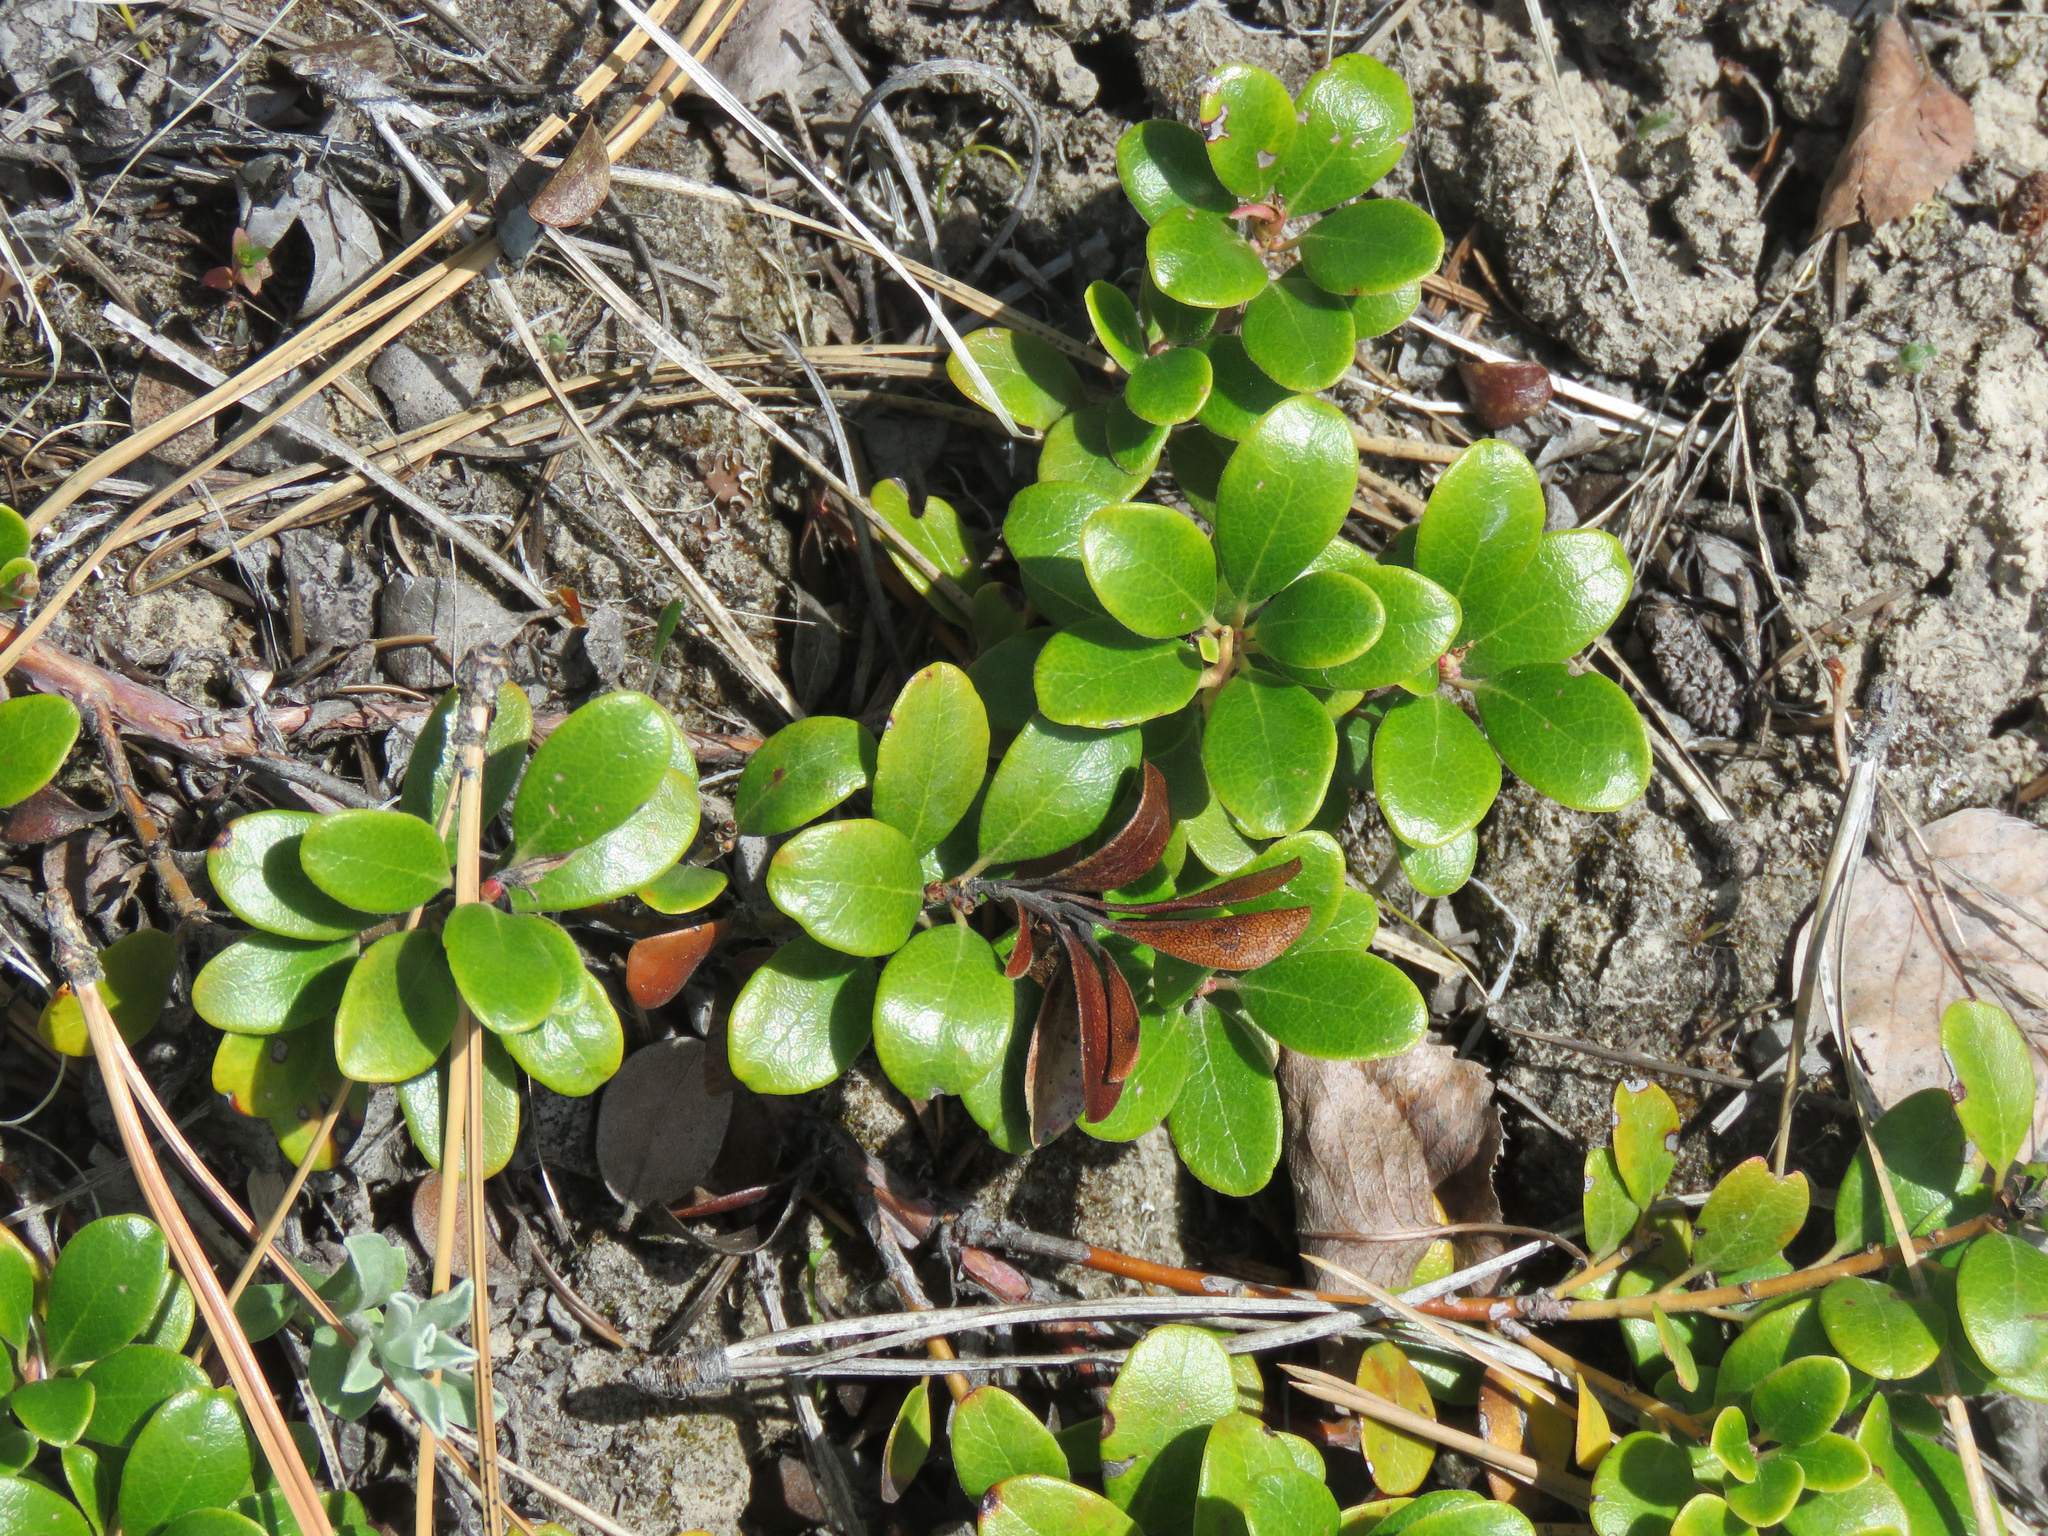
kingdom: Plantae
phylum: Tracheophyta
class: Magnoliopsida
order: Ericales
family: Ericaceae
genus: Arctostaphylos
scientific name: Arctostaphylos uva-ursi
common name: Bearberry
